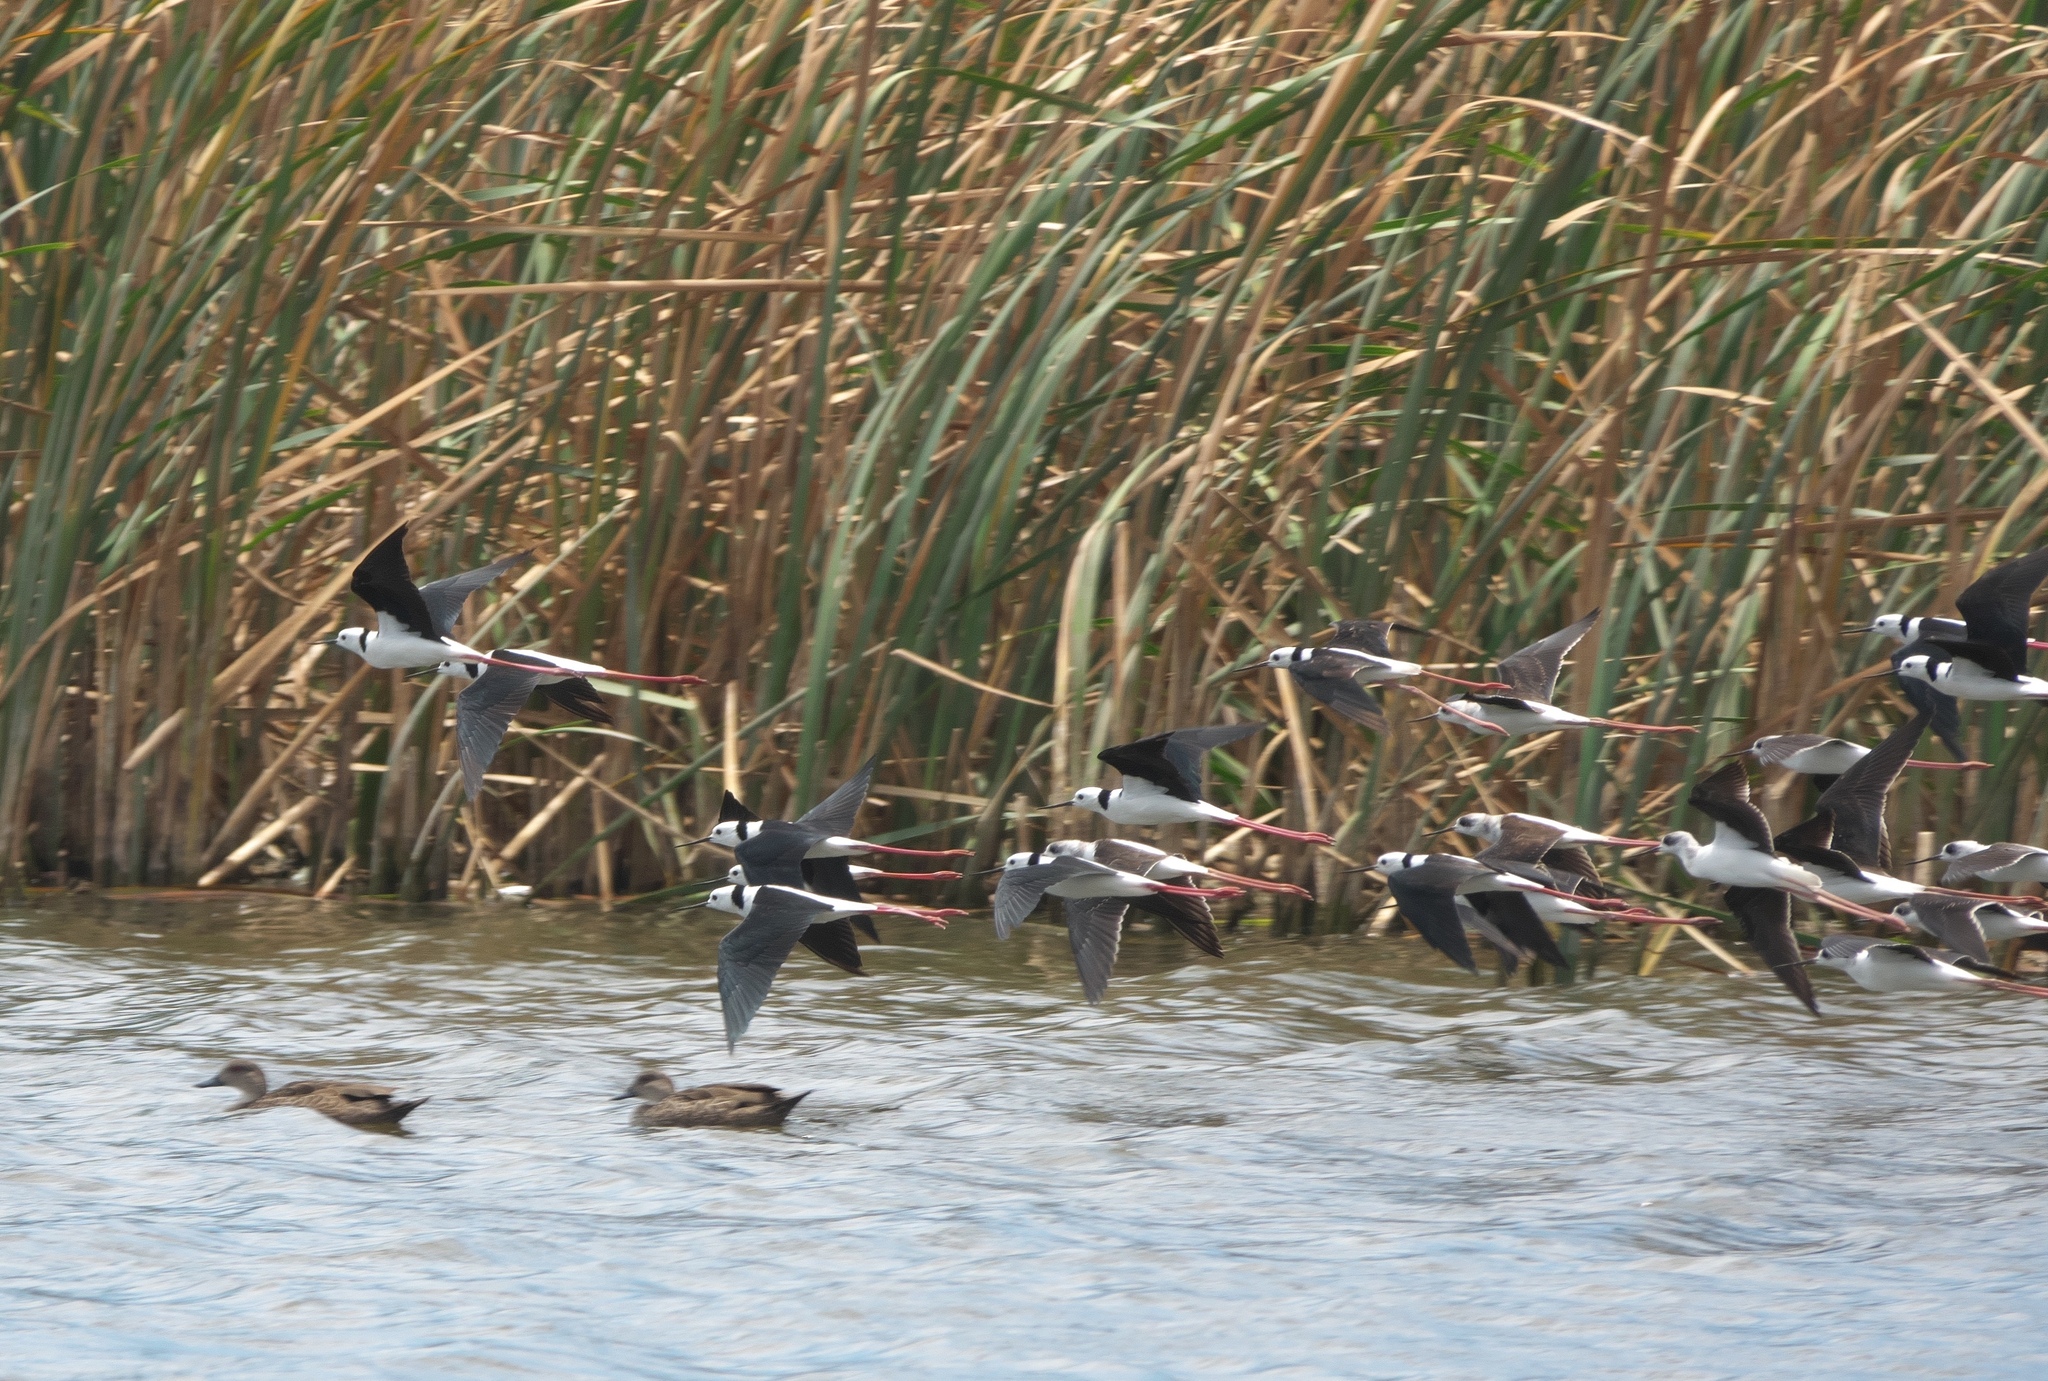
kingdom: Animalia
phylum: Chordata
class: Aves
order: Charadriiformes
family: Recurvirostridae
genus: Himantopus
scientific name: Himantopus leucocephalus
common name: White-headed stilt
